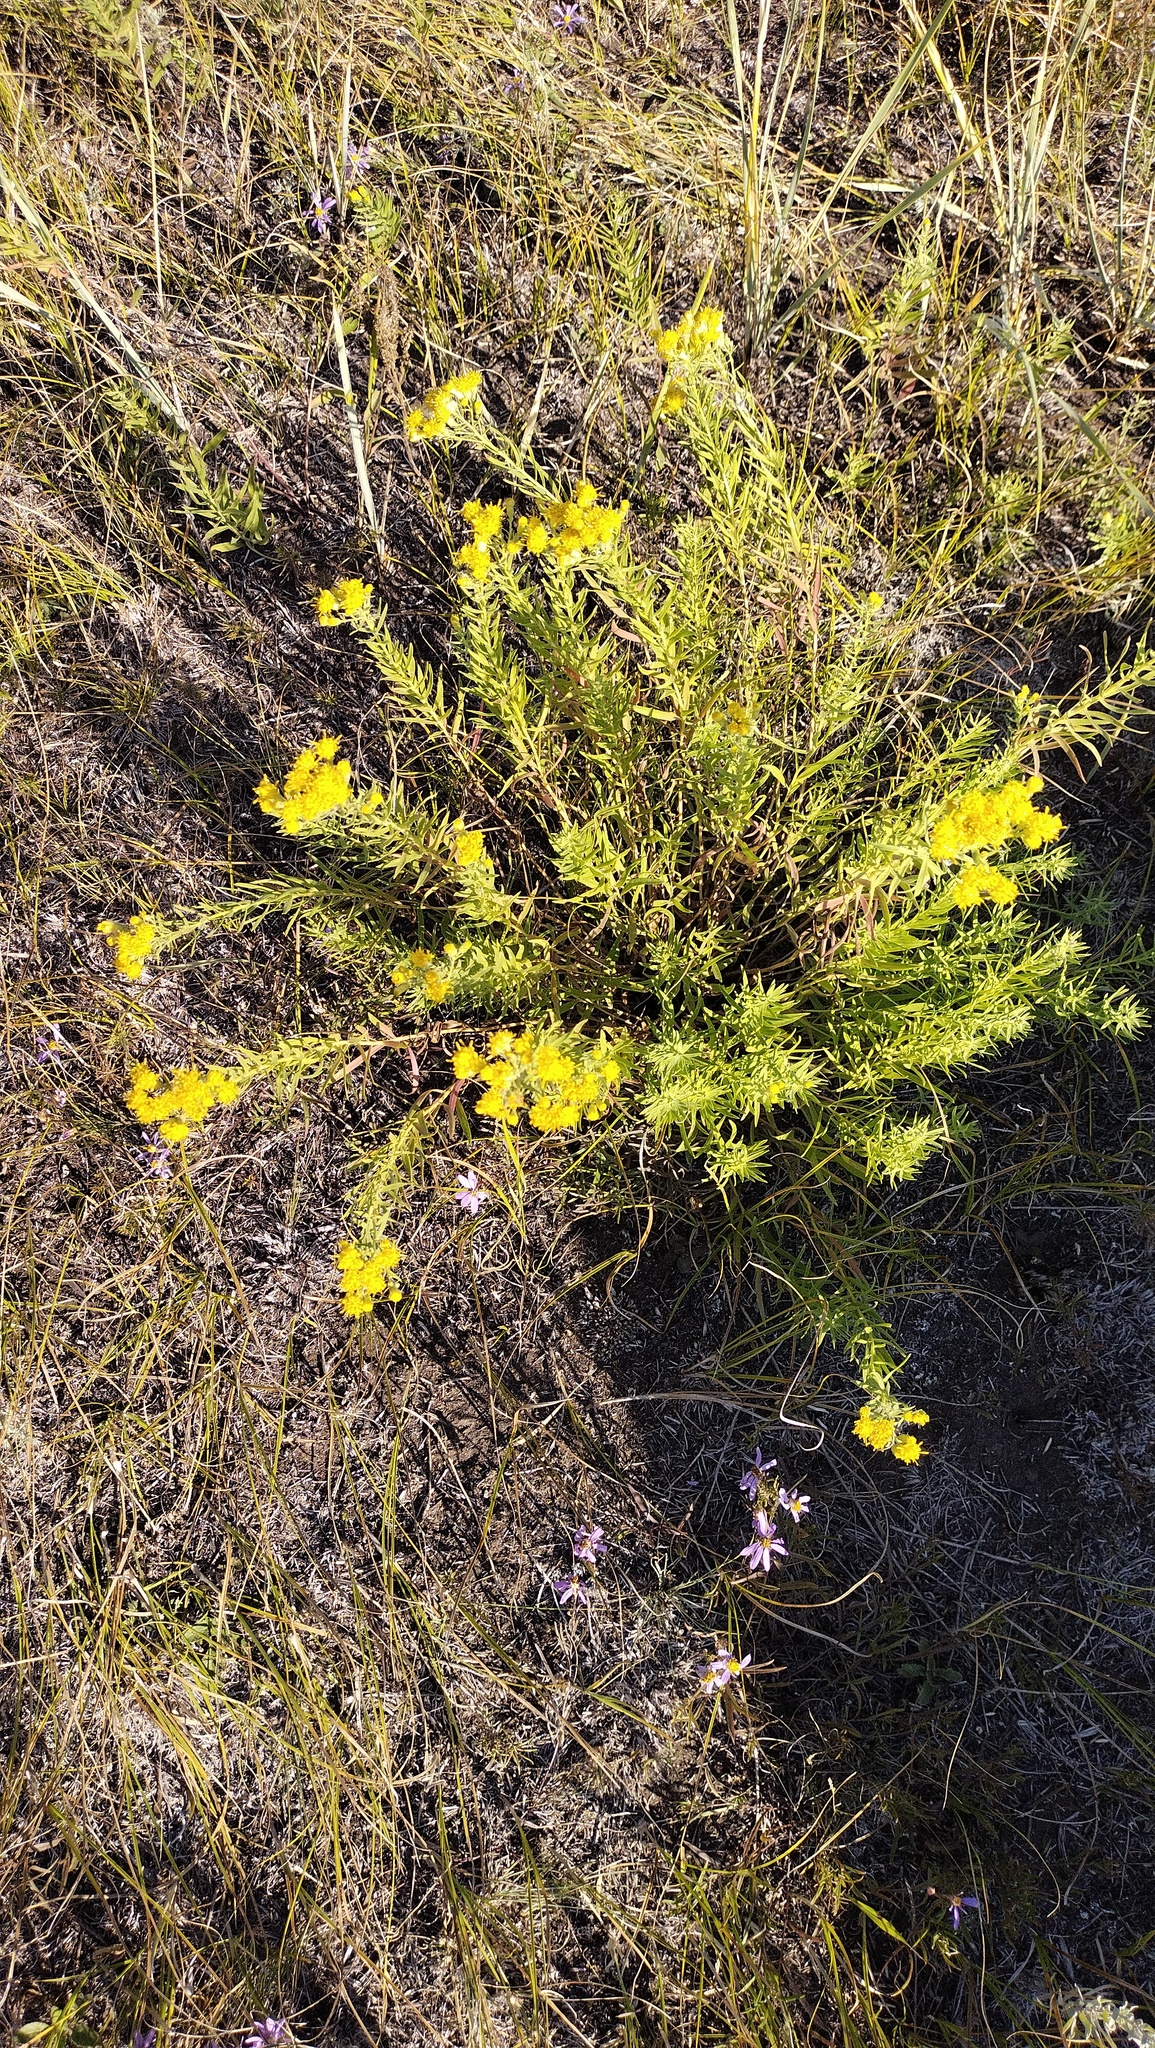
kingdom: Plantae
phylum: Tracheophyta
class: Magnoliopsida
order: Asterales
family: Asteraceae
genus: Galatella
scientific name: Galatella biflora
